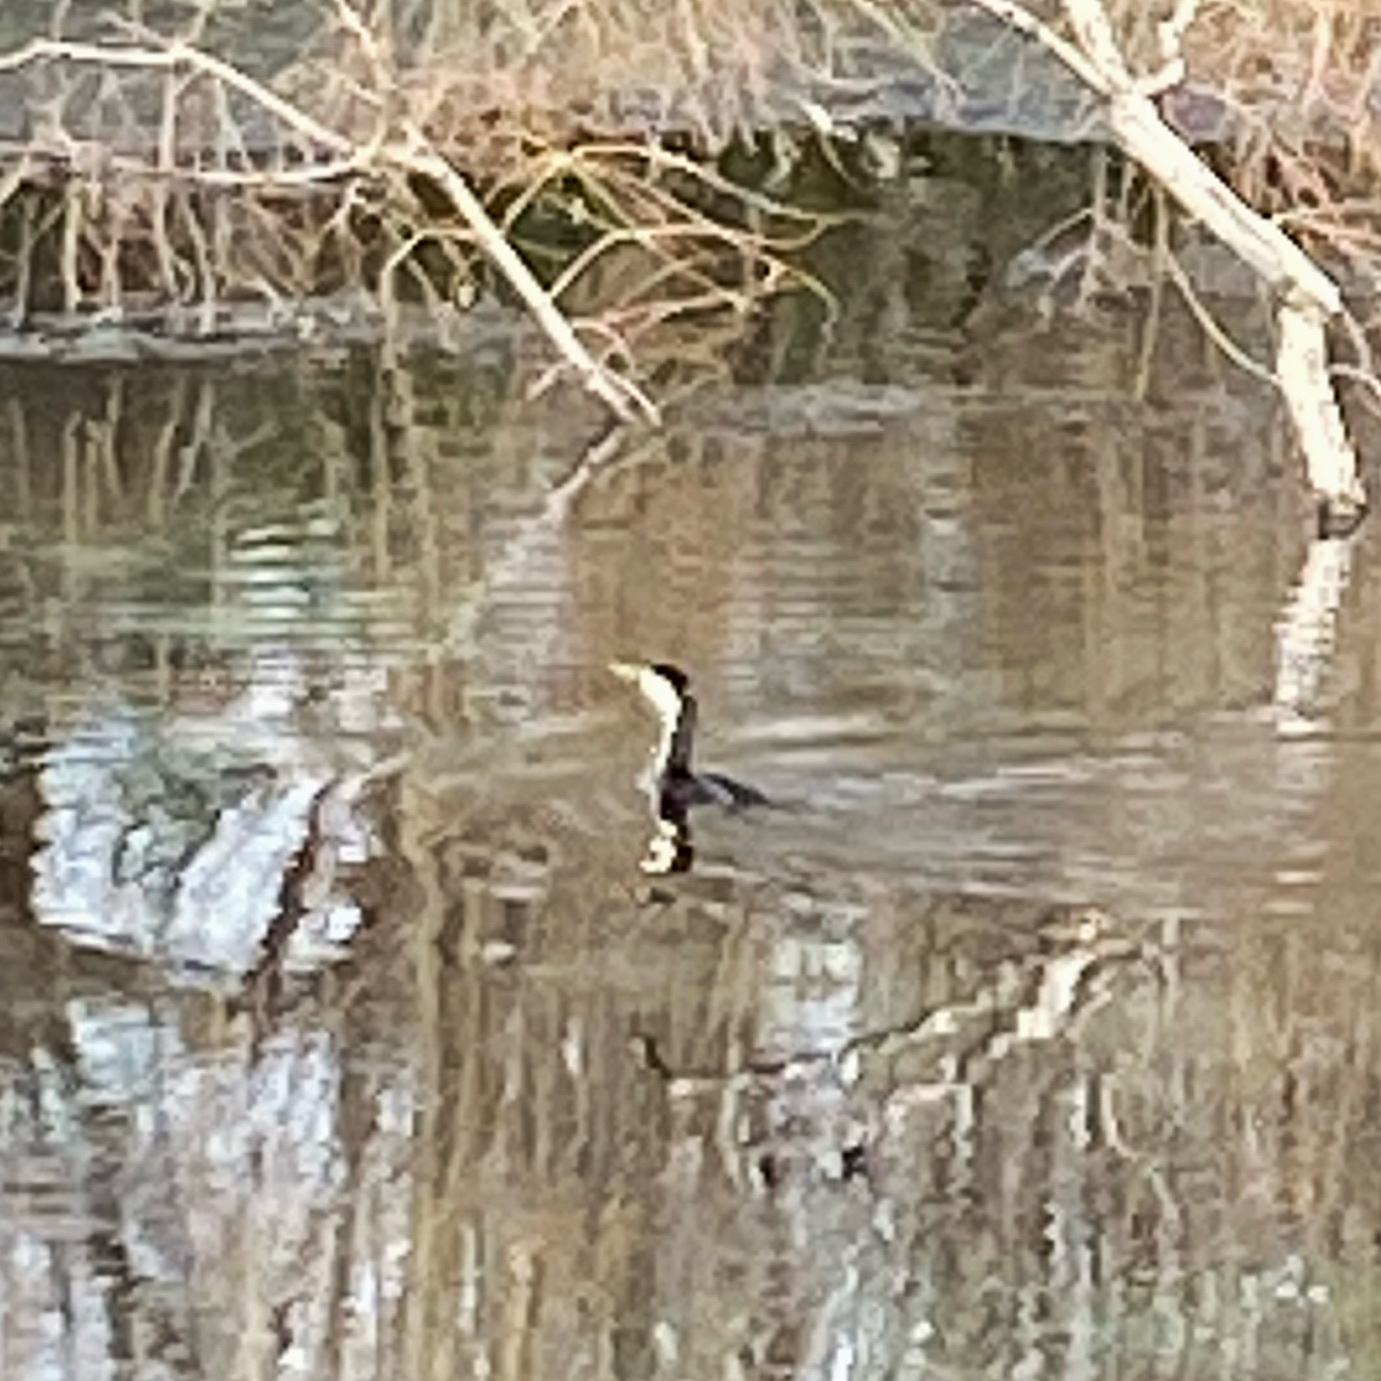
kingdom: Animalia
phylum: Chordata
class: Aves
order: Suliformes
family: Phalacrocoracidae
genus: Microcarbo
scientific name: Microcarbo melanoleucos
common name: Little pied cormorant
